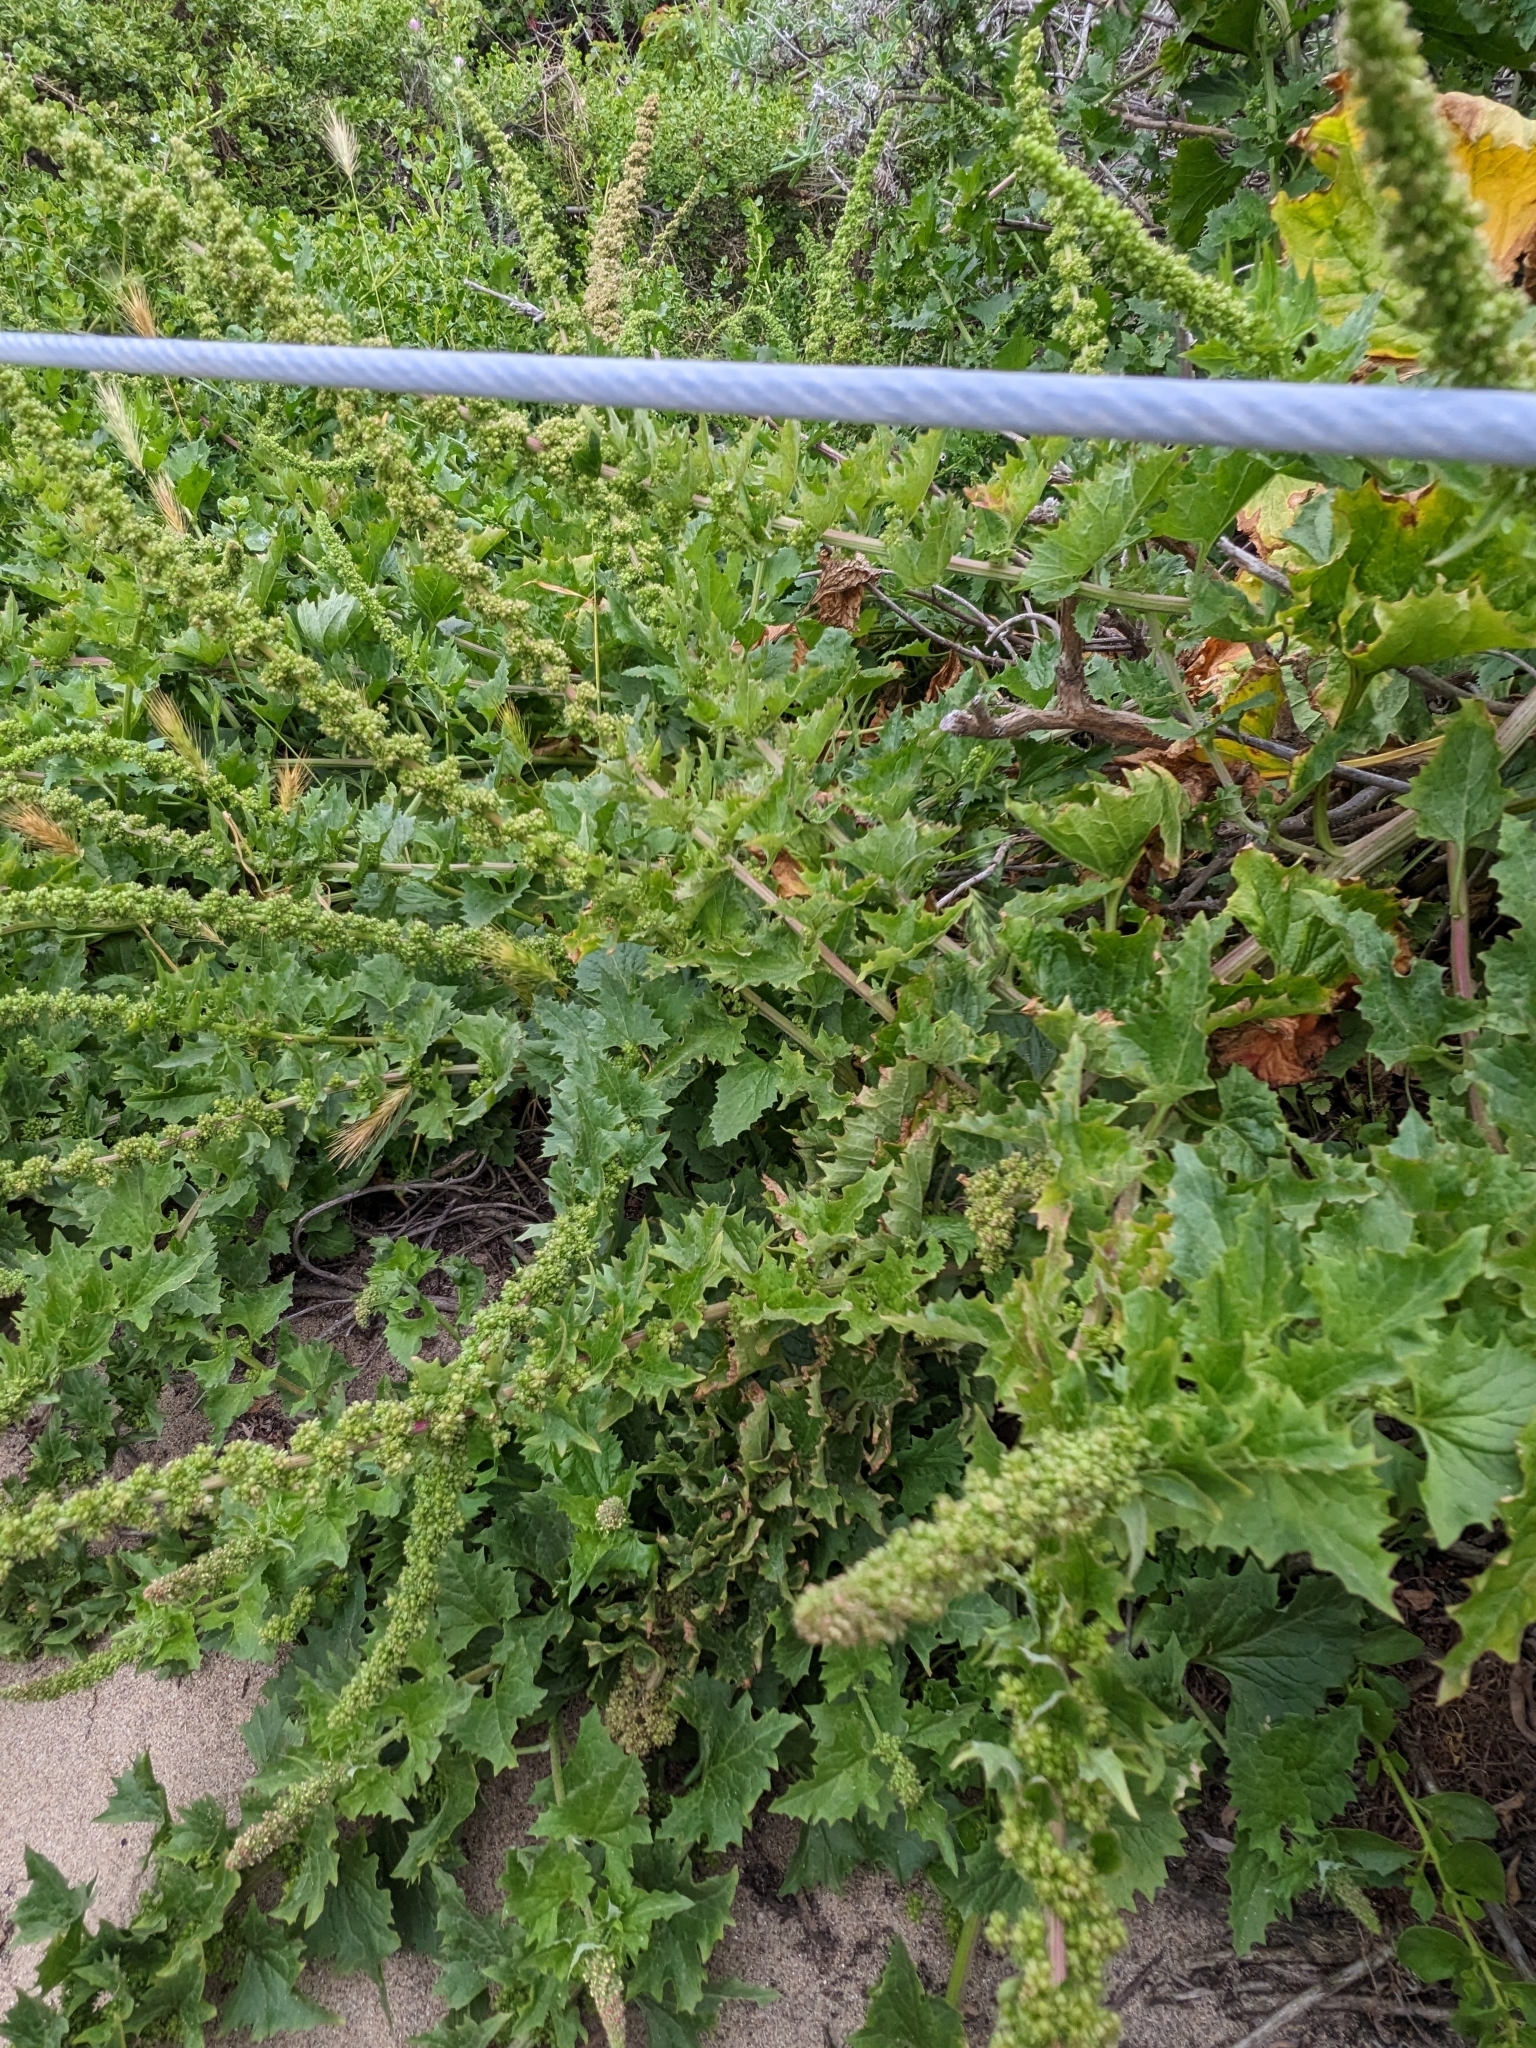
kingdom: Plantae
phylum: Tracheophyta
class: Magnoliopsida
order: Caryophyllales
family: Amaranthaceae
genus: Blitum
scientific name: Blitum californicum
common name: California goosefoot
